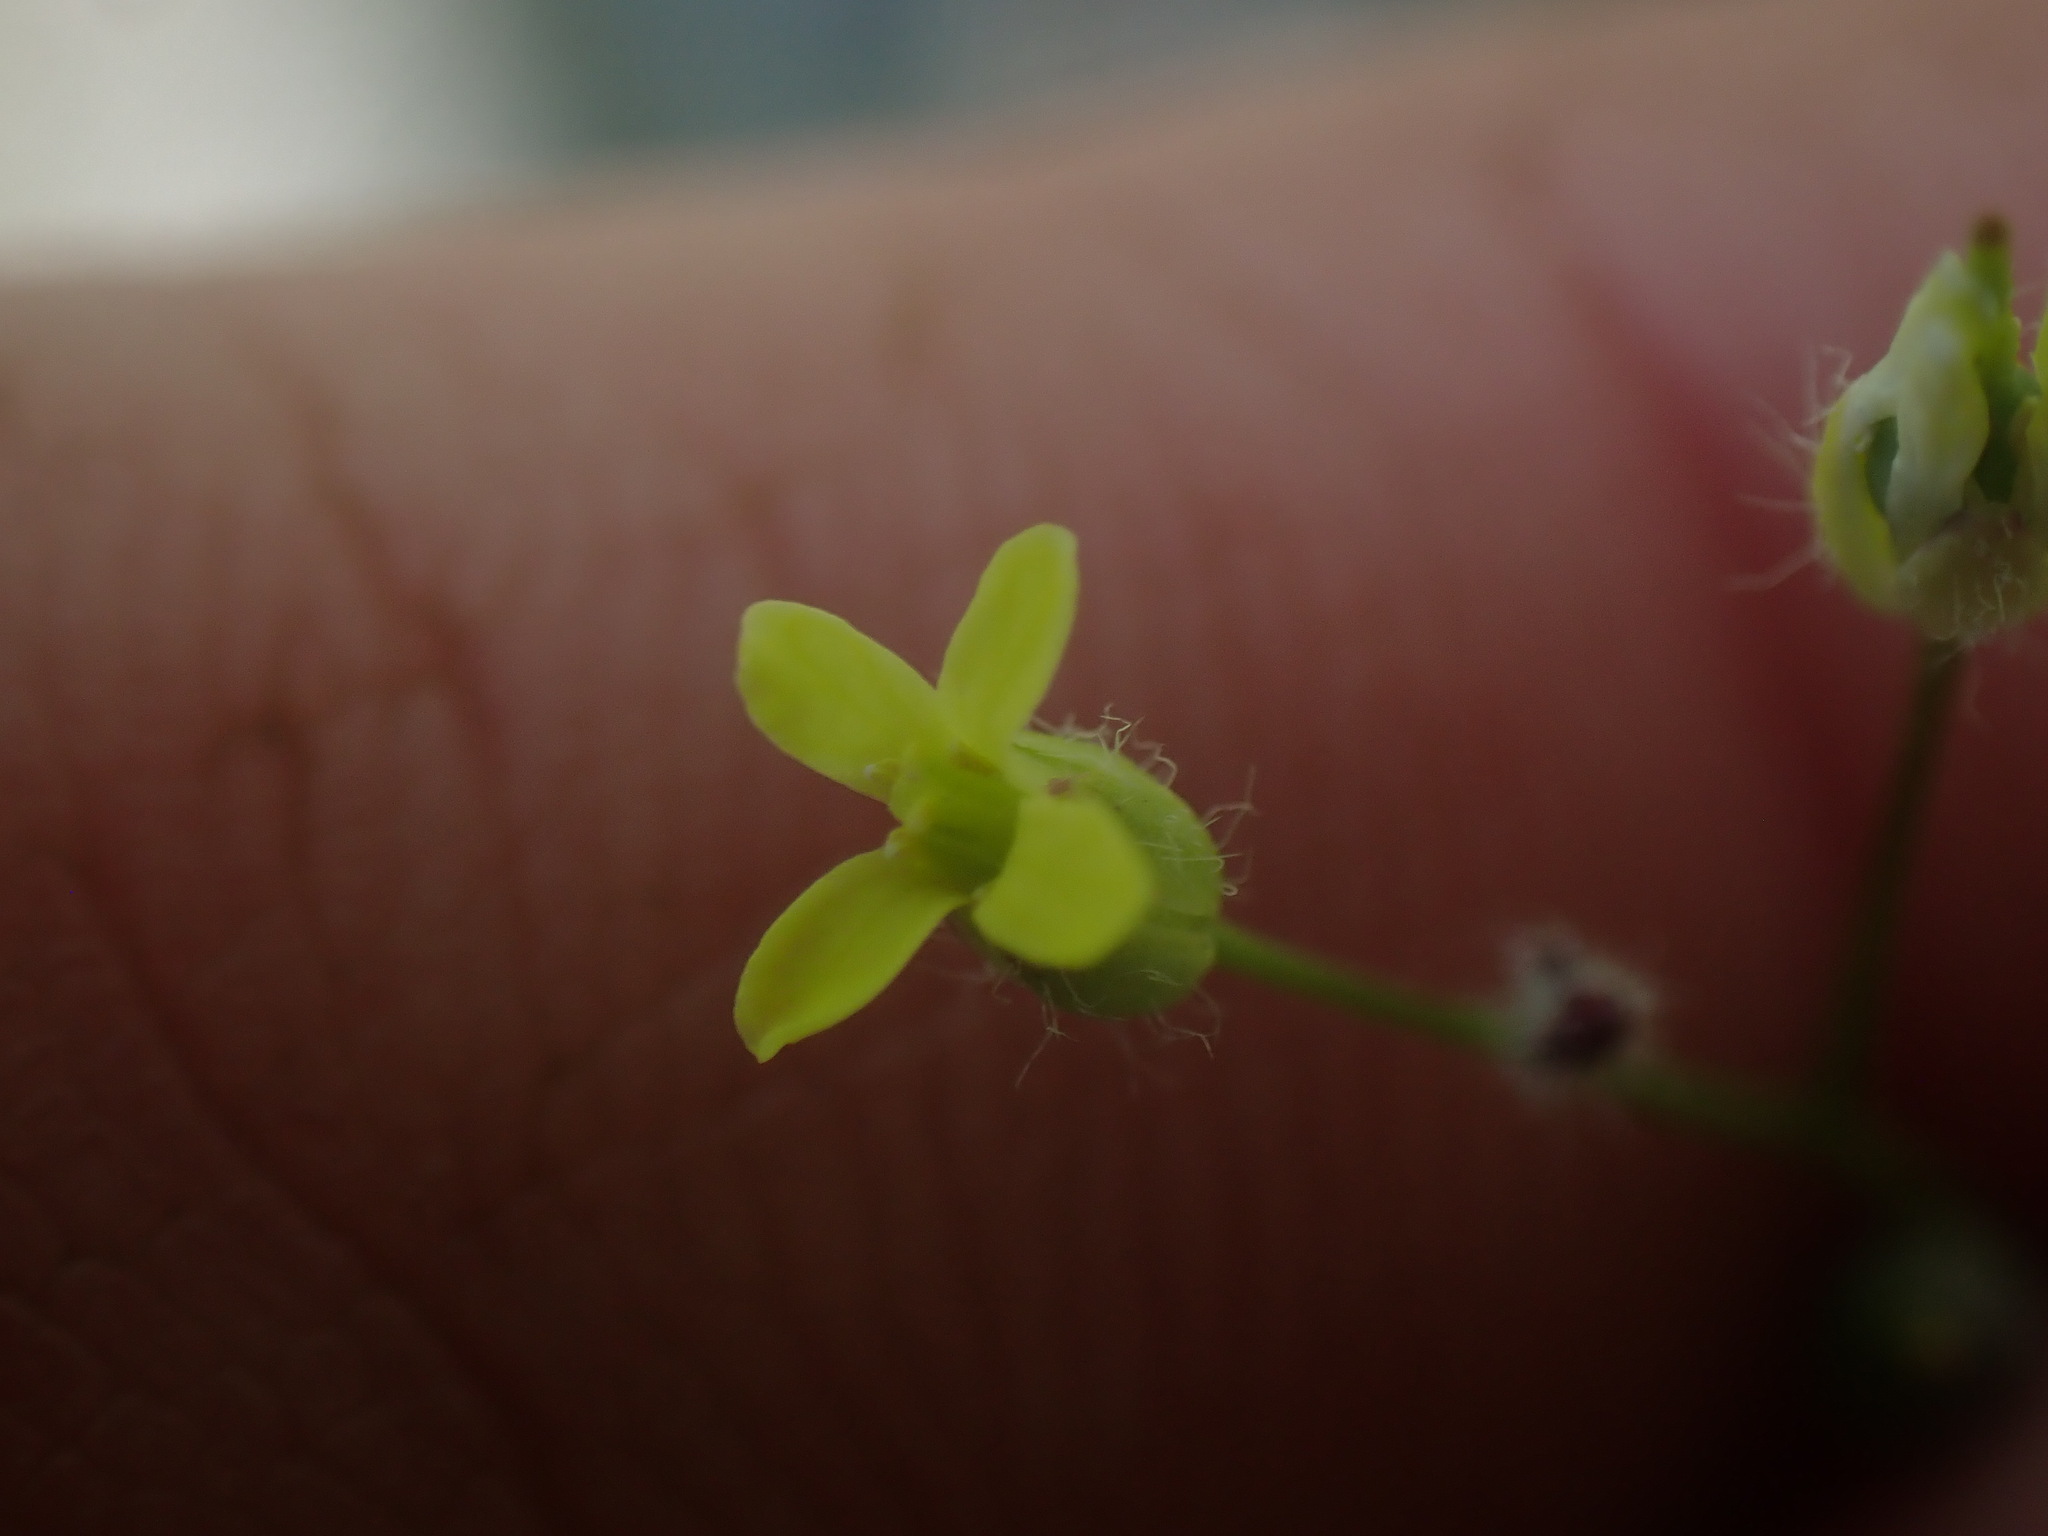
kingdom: Plantae
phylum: Tracheophyta
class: Magnoliopsida
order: Brassicales
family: Brassicaceae
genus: Camelina
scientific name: Camelina microcarpa
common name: Lesser gold-of-pleasure
